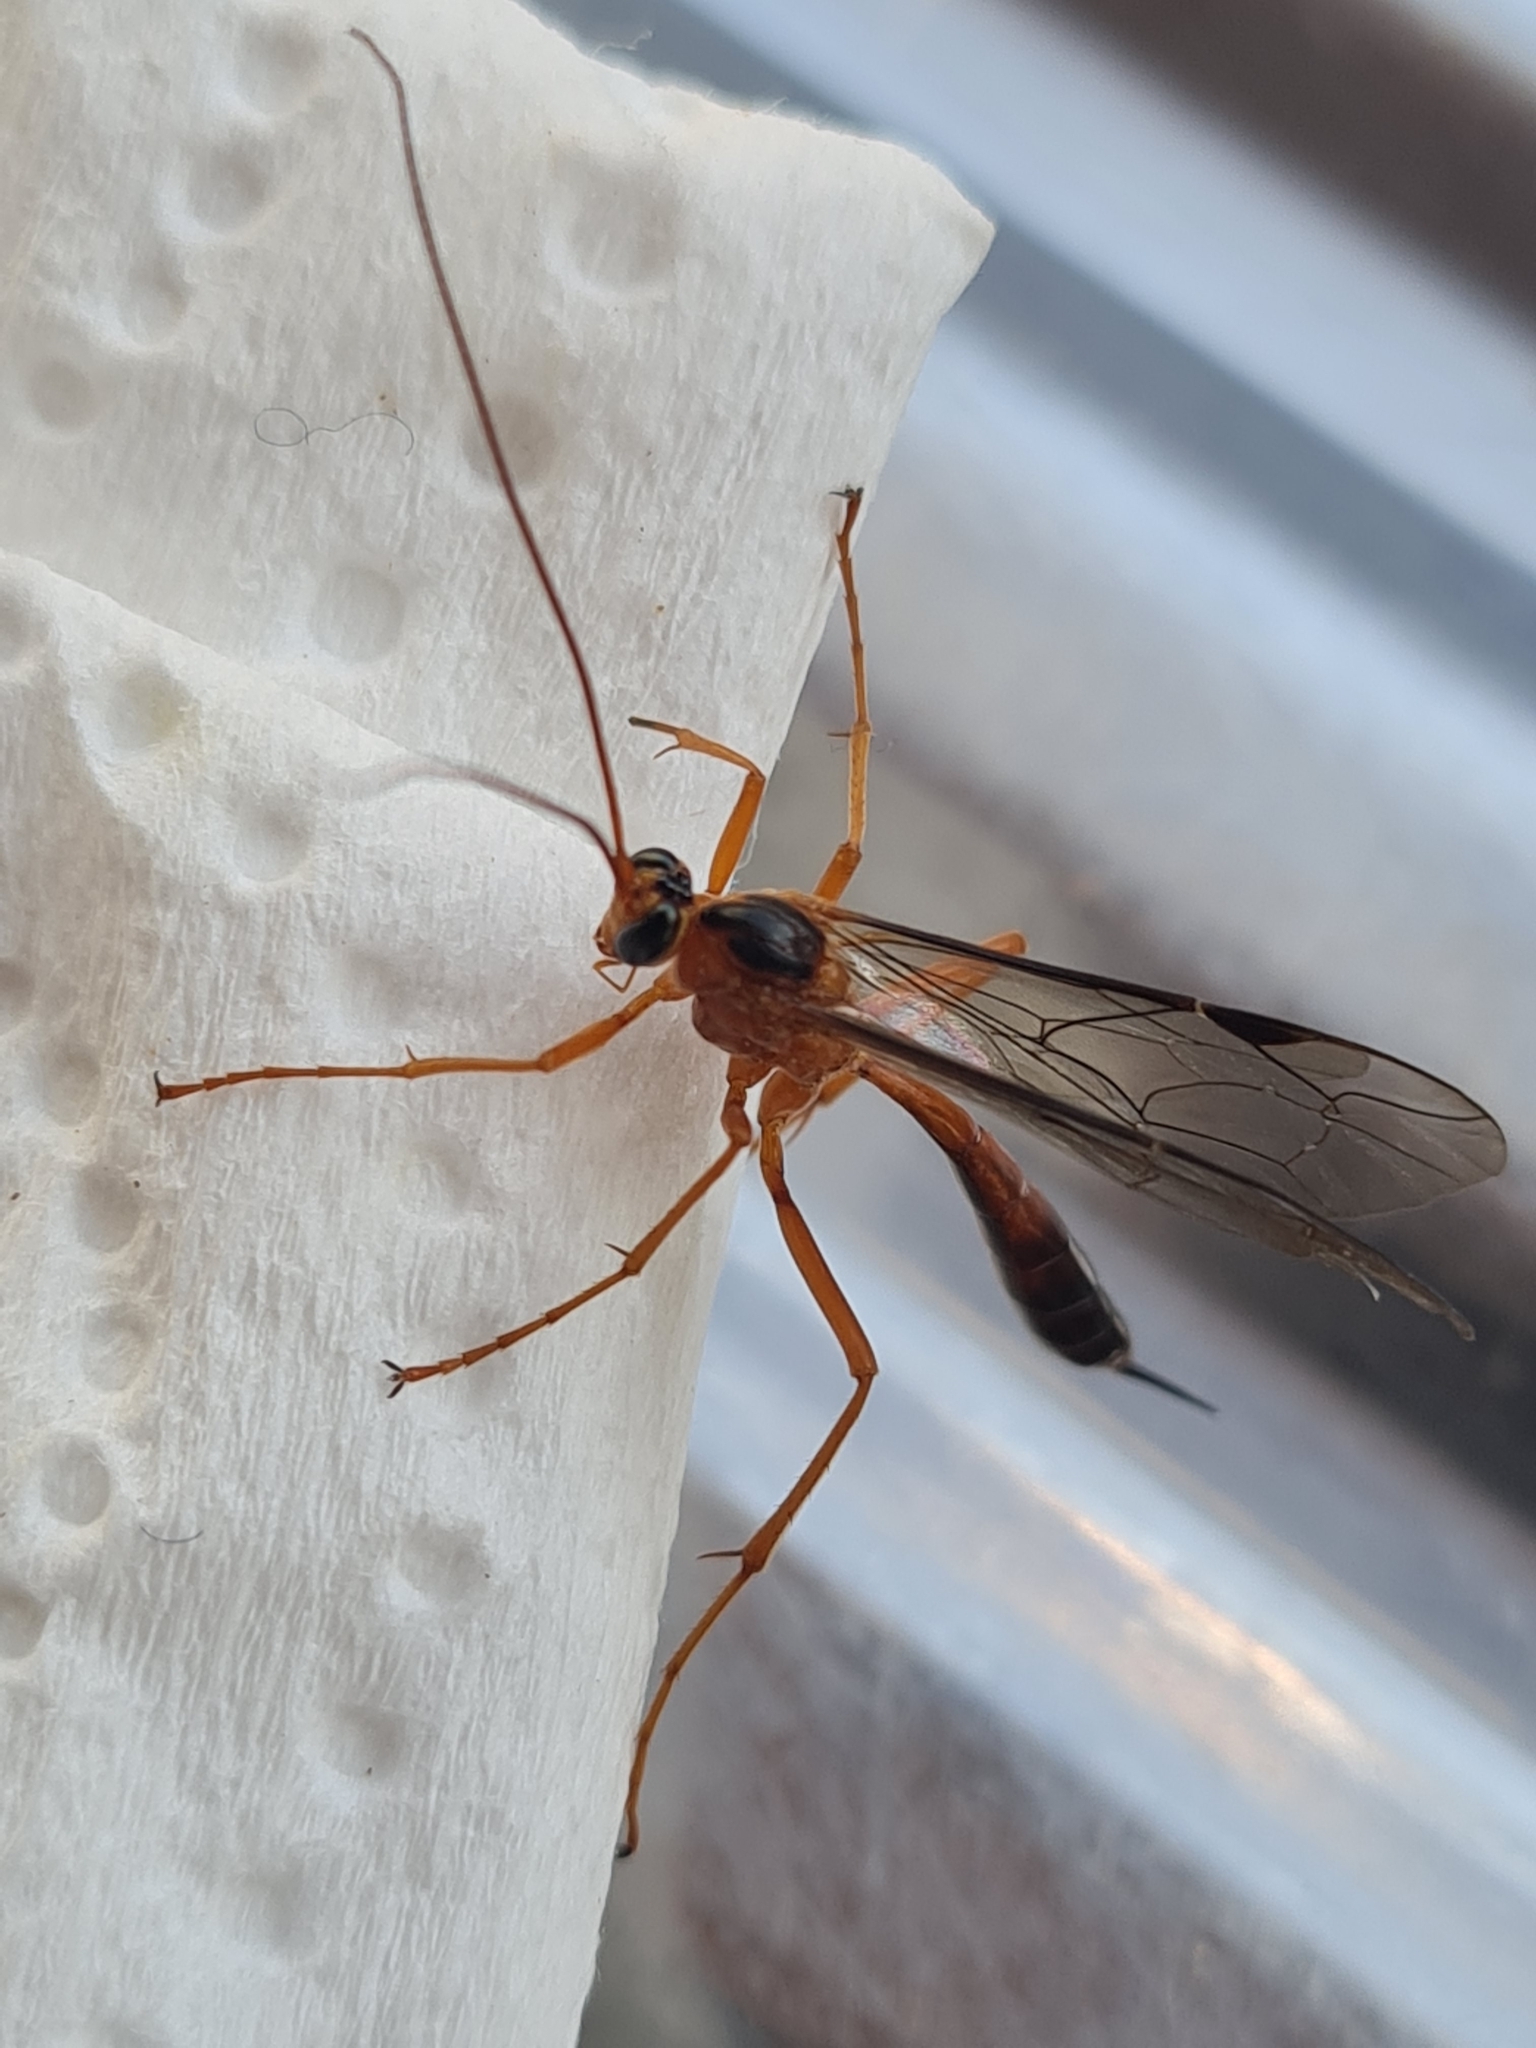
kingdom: Animalia
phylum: Arthropoda
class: Insecta
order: Hymenoptera
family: Ichneumonidae
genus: Netelia
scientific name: Netelia ephippiata
